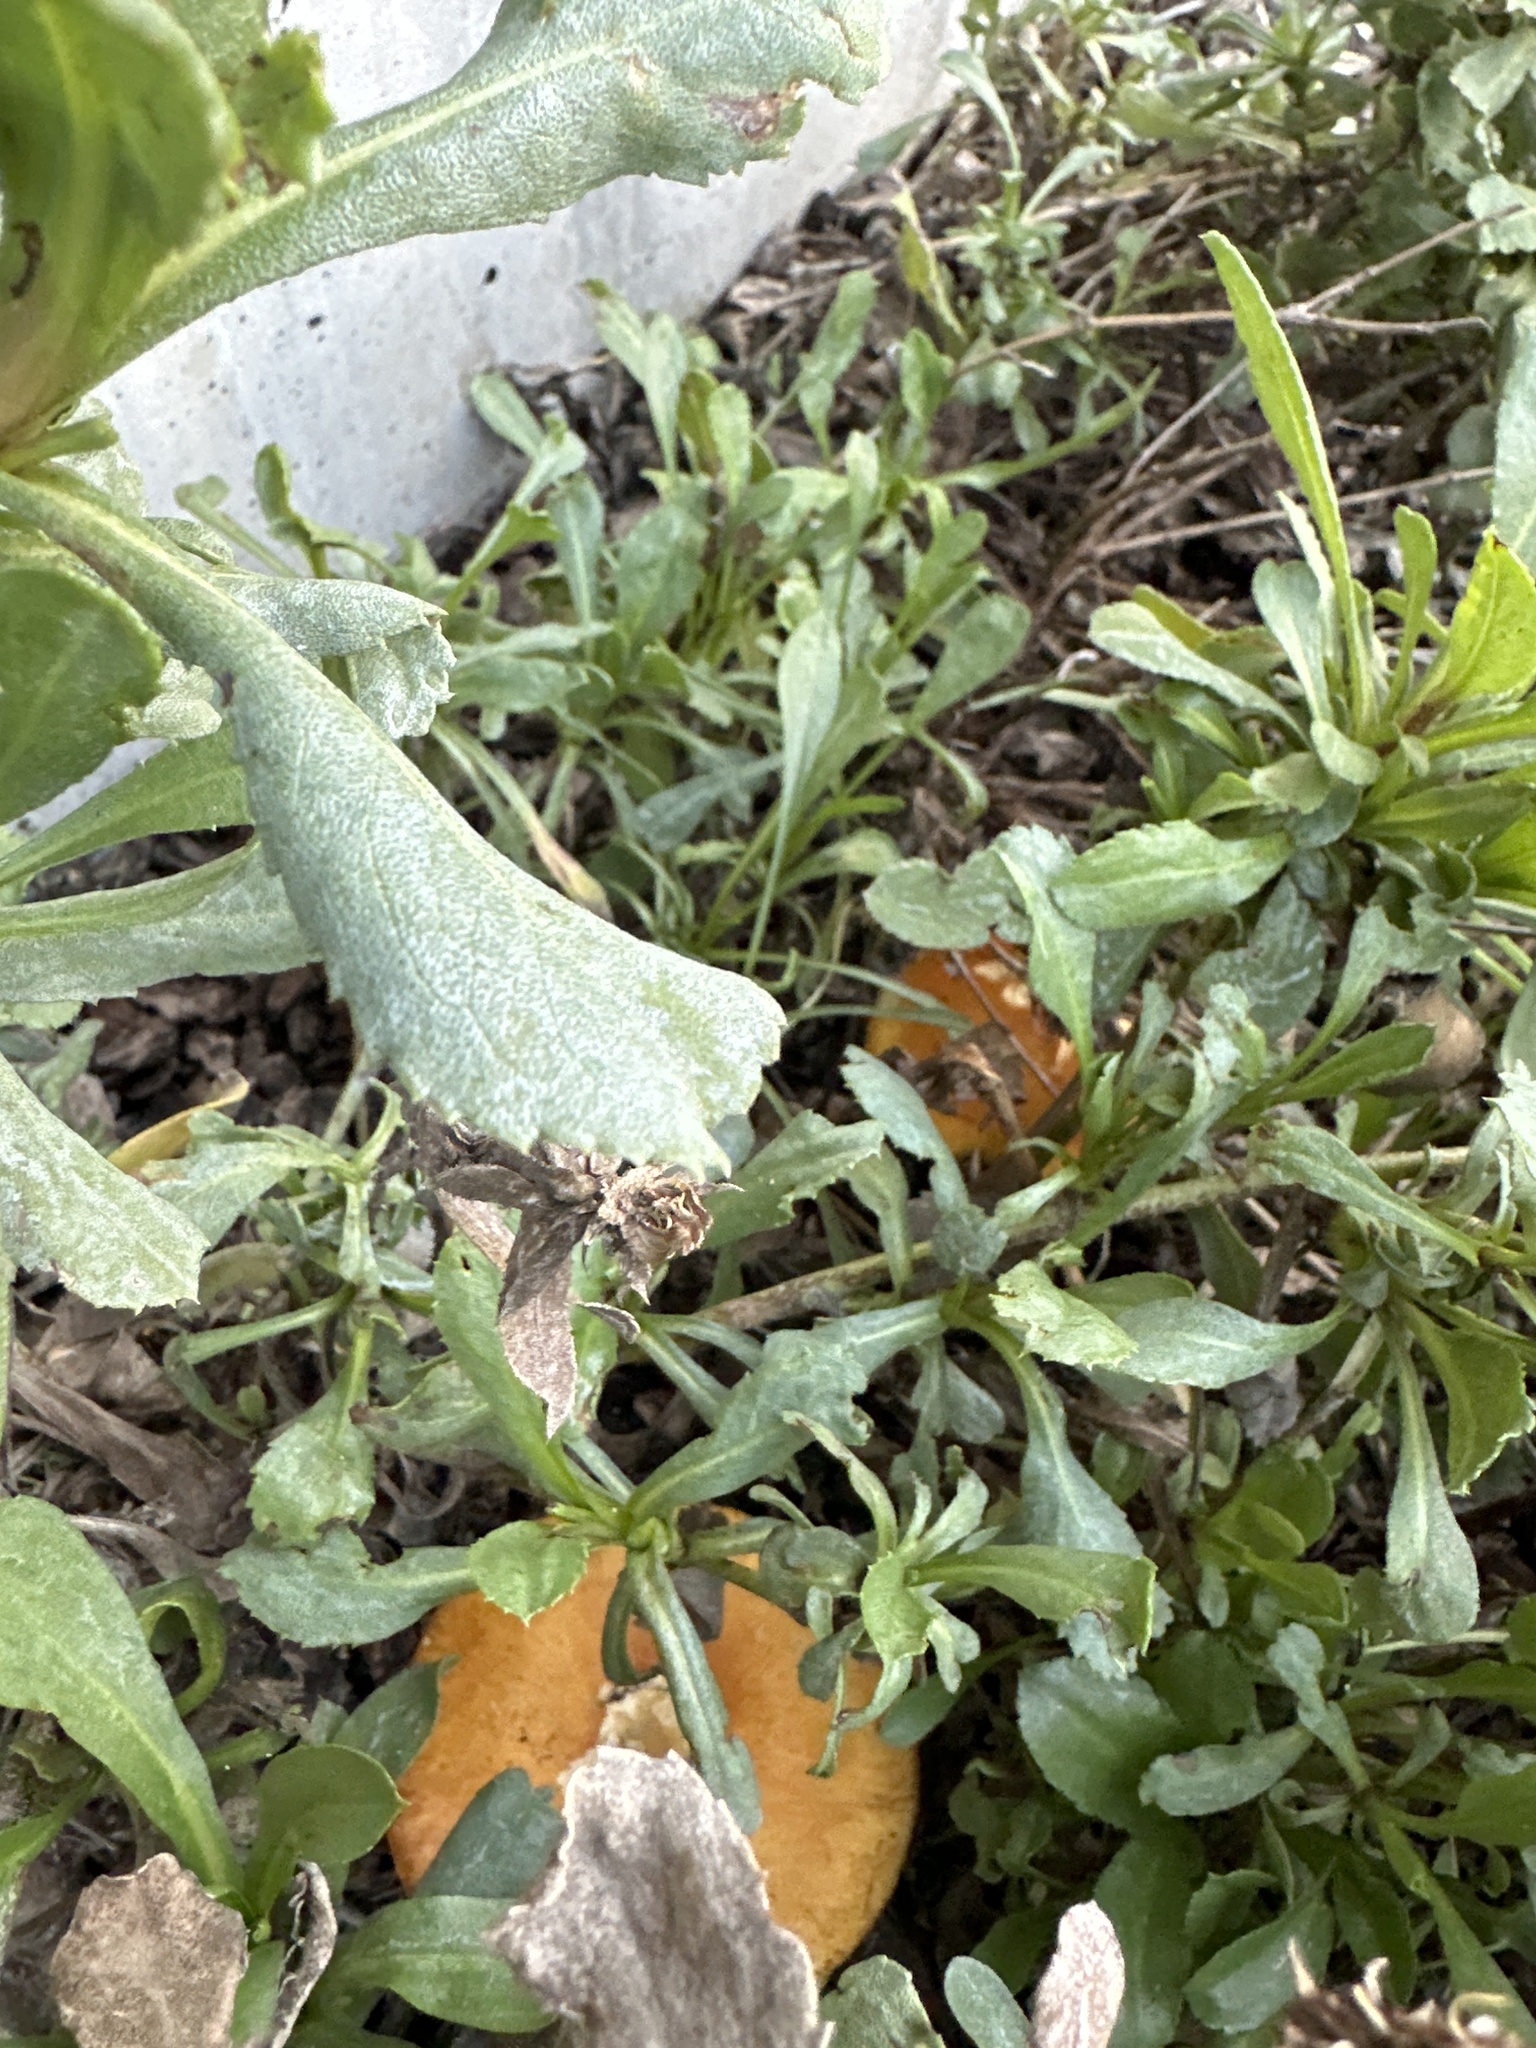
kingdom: Fungi
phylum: Basidiomycota
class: Agaricomycetes
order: Agaricales
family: Hymenogastraceae
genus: Gymnopilus
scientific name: Gymnopilus aurantiophyllus
